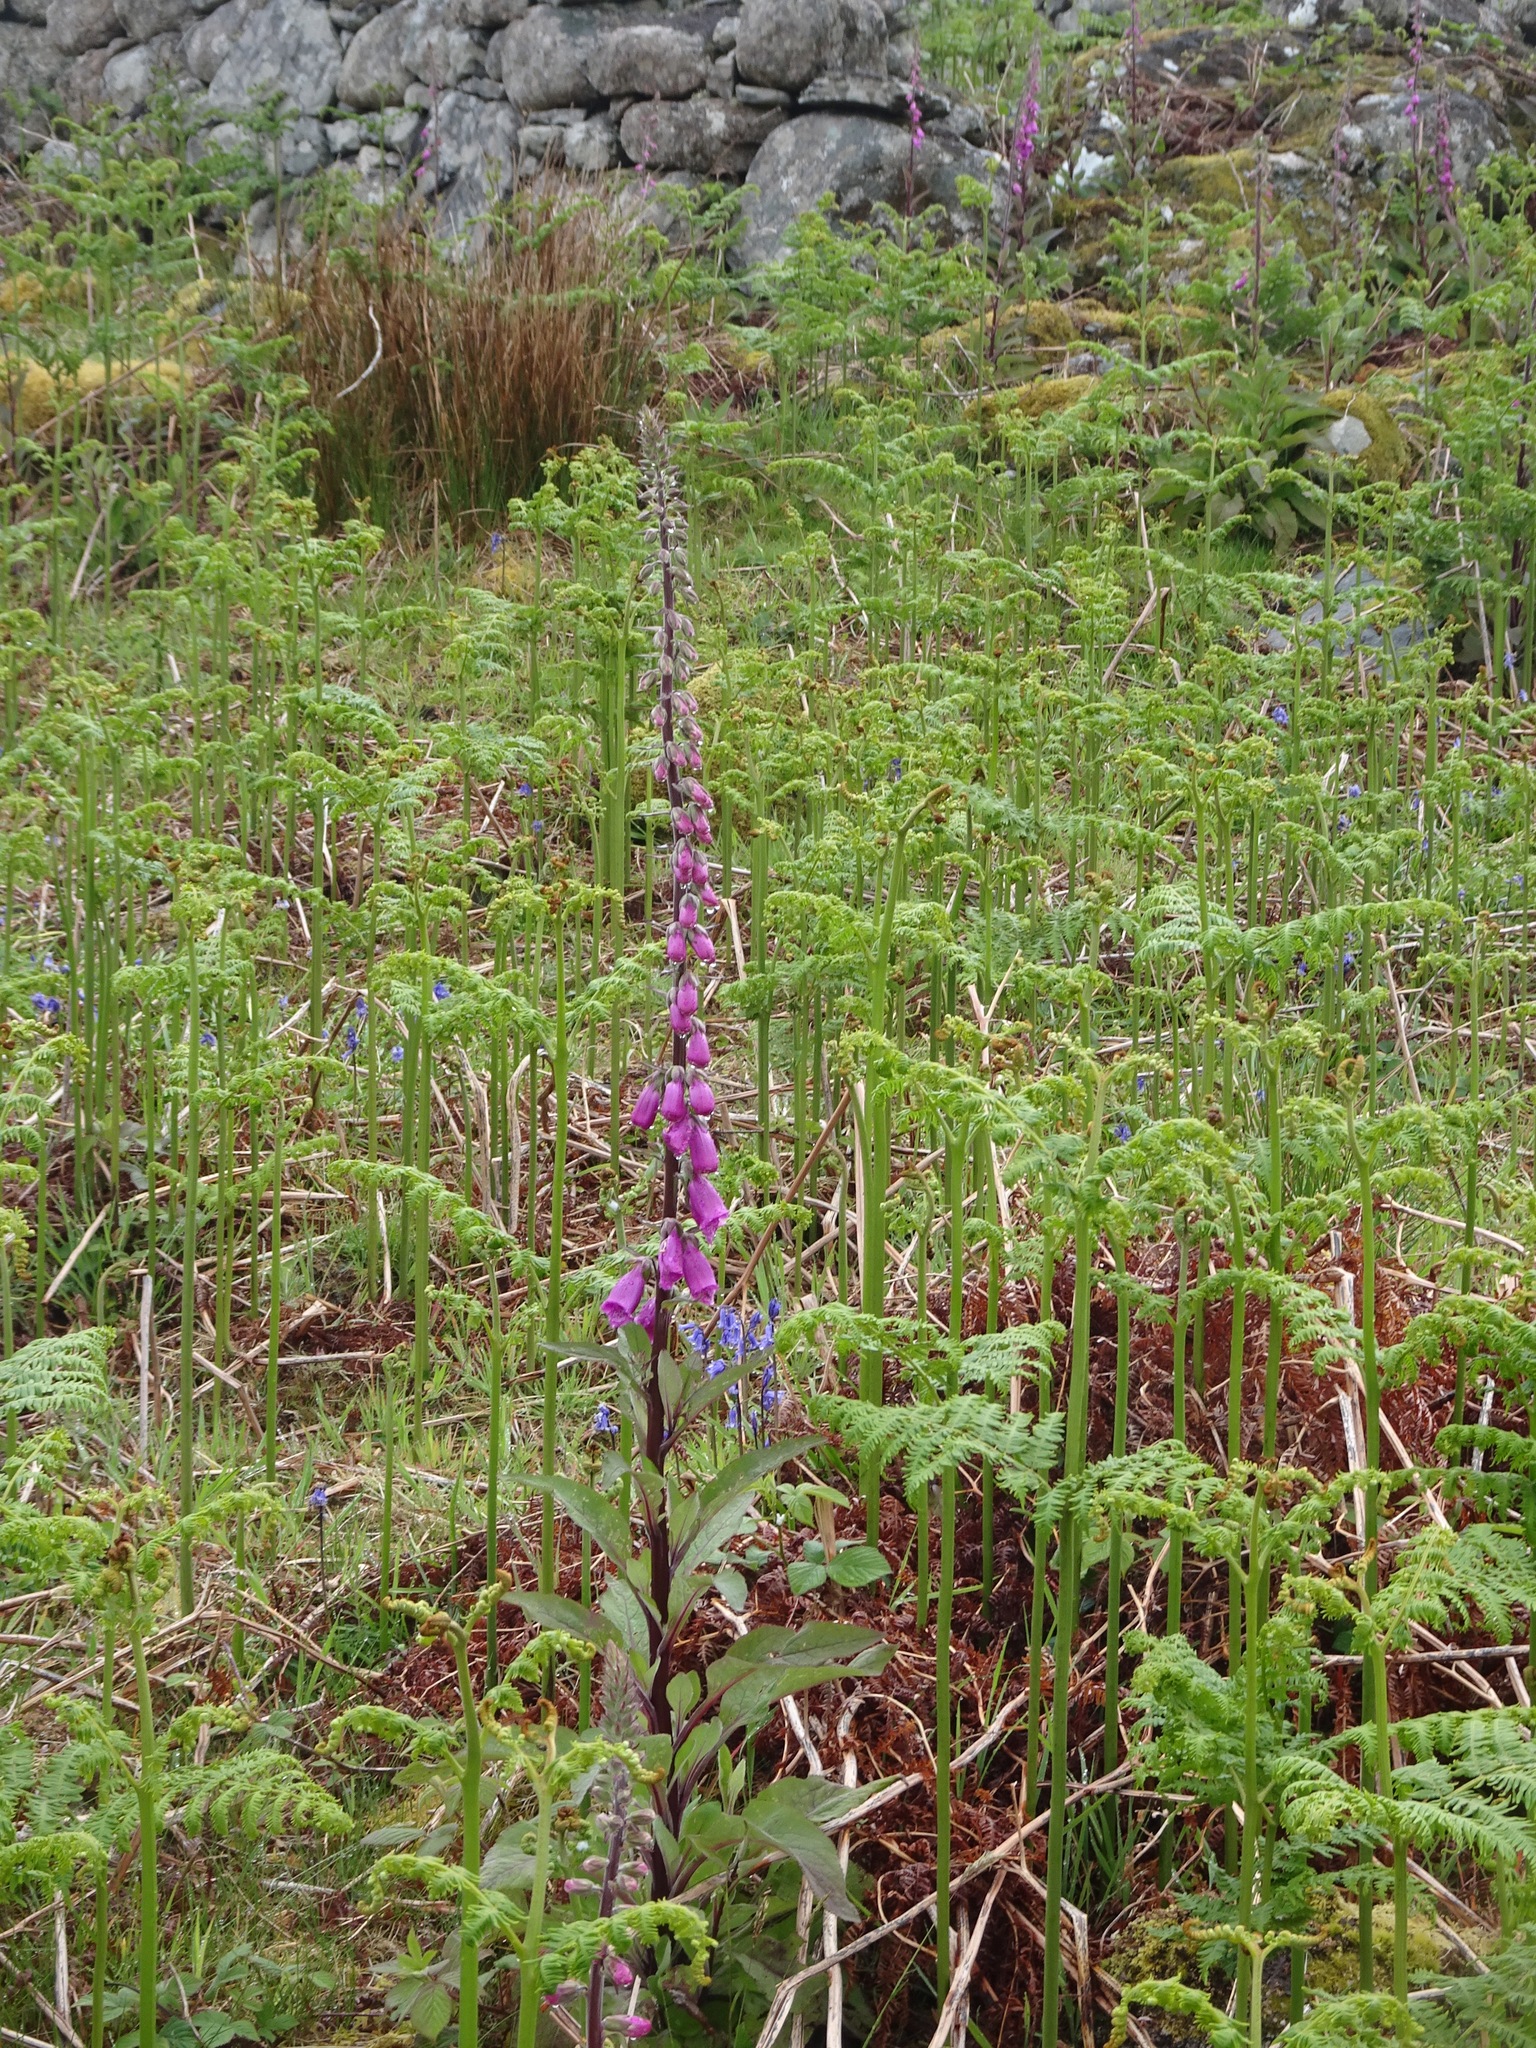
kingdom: Plantae
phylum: Tracheophyta
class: Magnoliopsida
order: Lamiales
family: Plantaginaceae
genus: Digitalis
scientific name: Digitalis purpurea
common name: Foxglove
